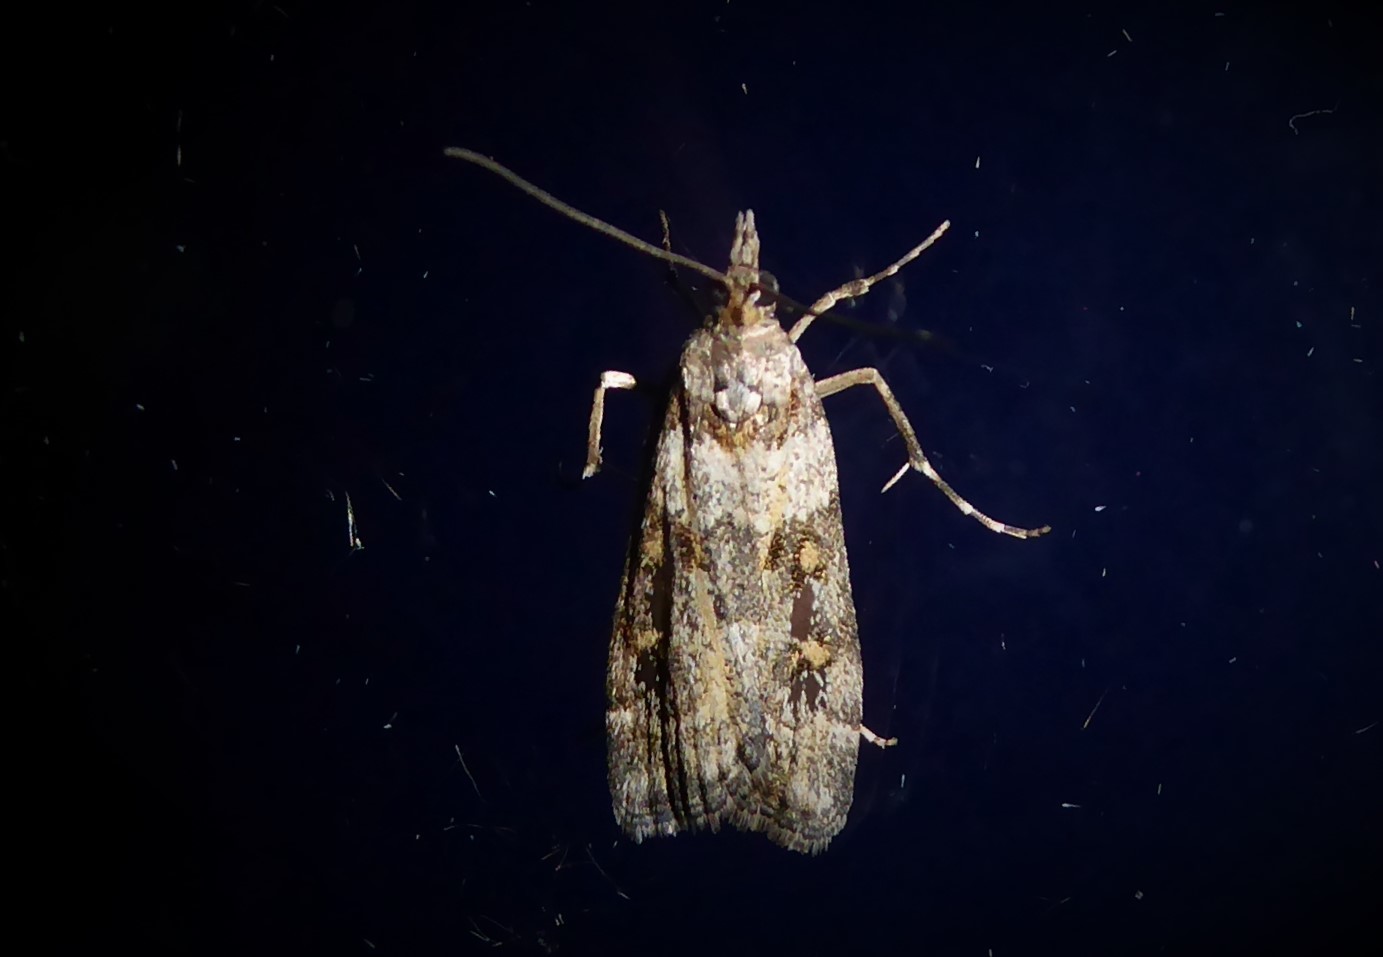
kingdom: Animalia
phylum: Arthropoda
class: Insecta
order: Lepidoptera
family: Crambidae
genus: Eudonia
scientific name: Eudonia diphtheralis
